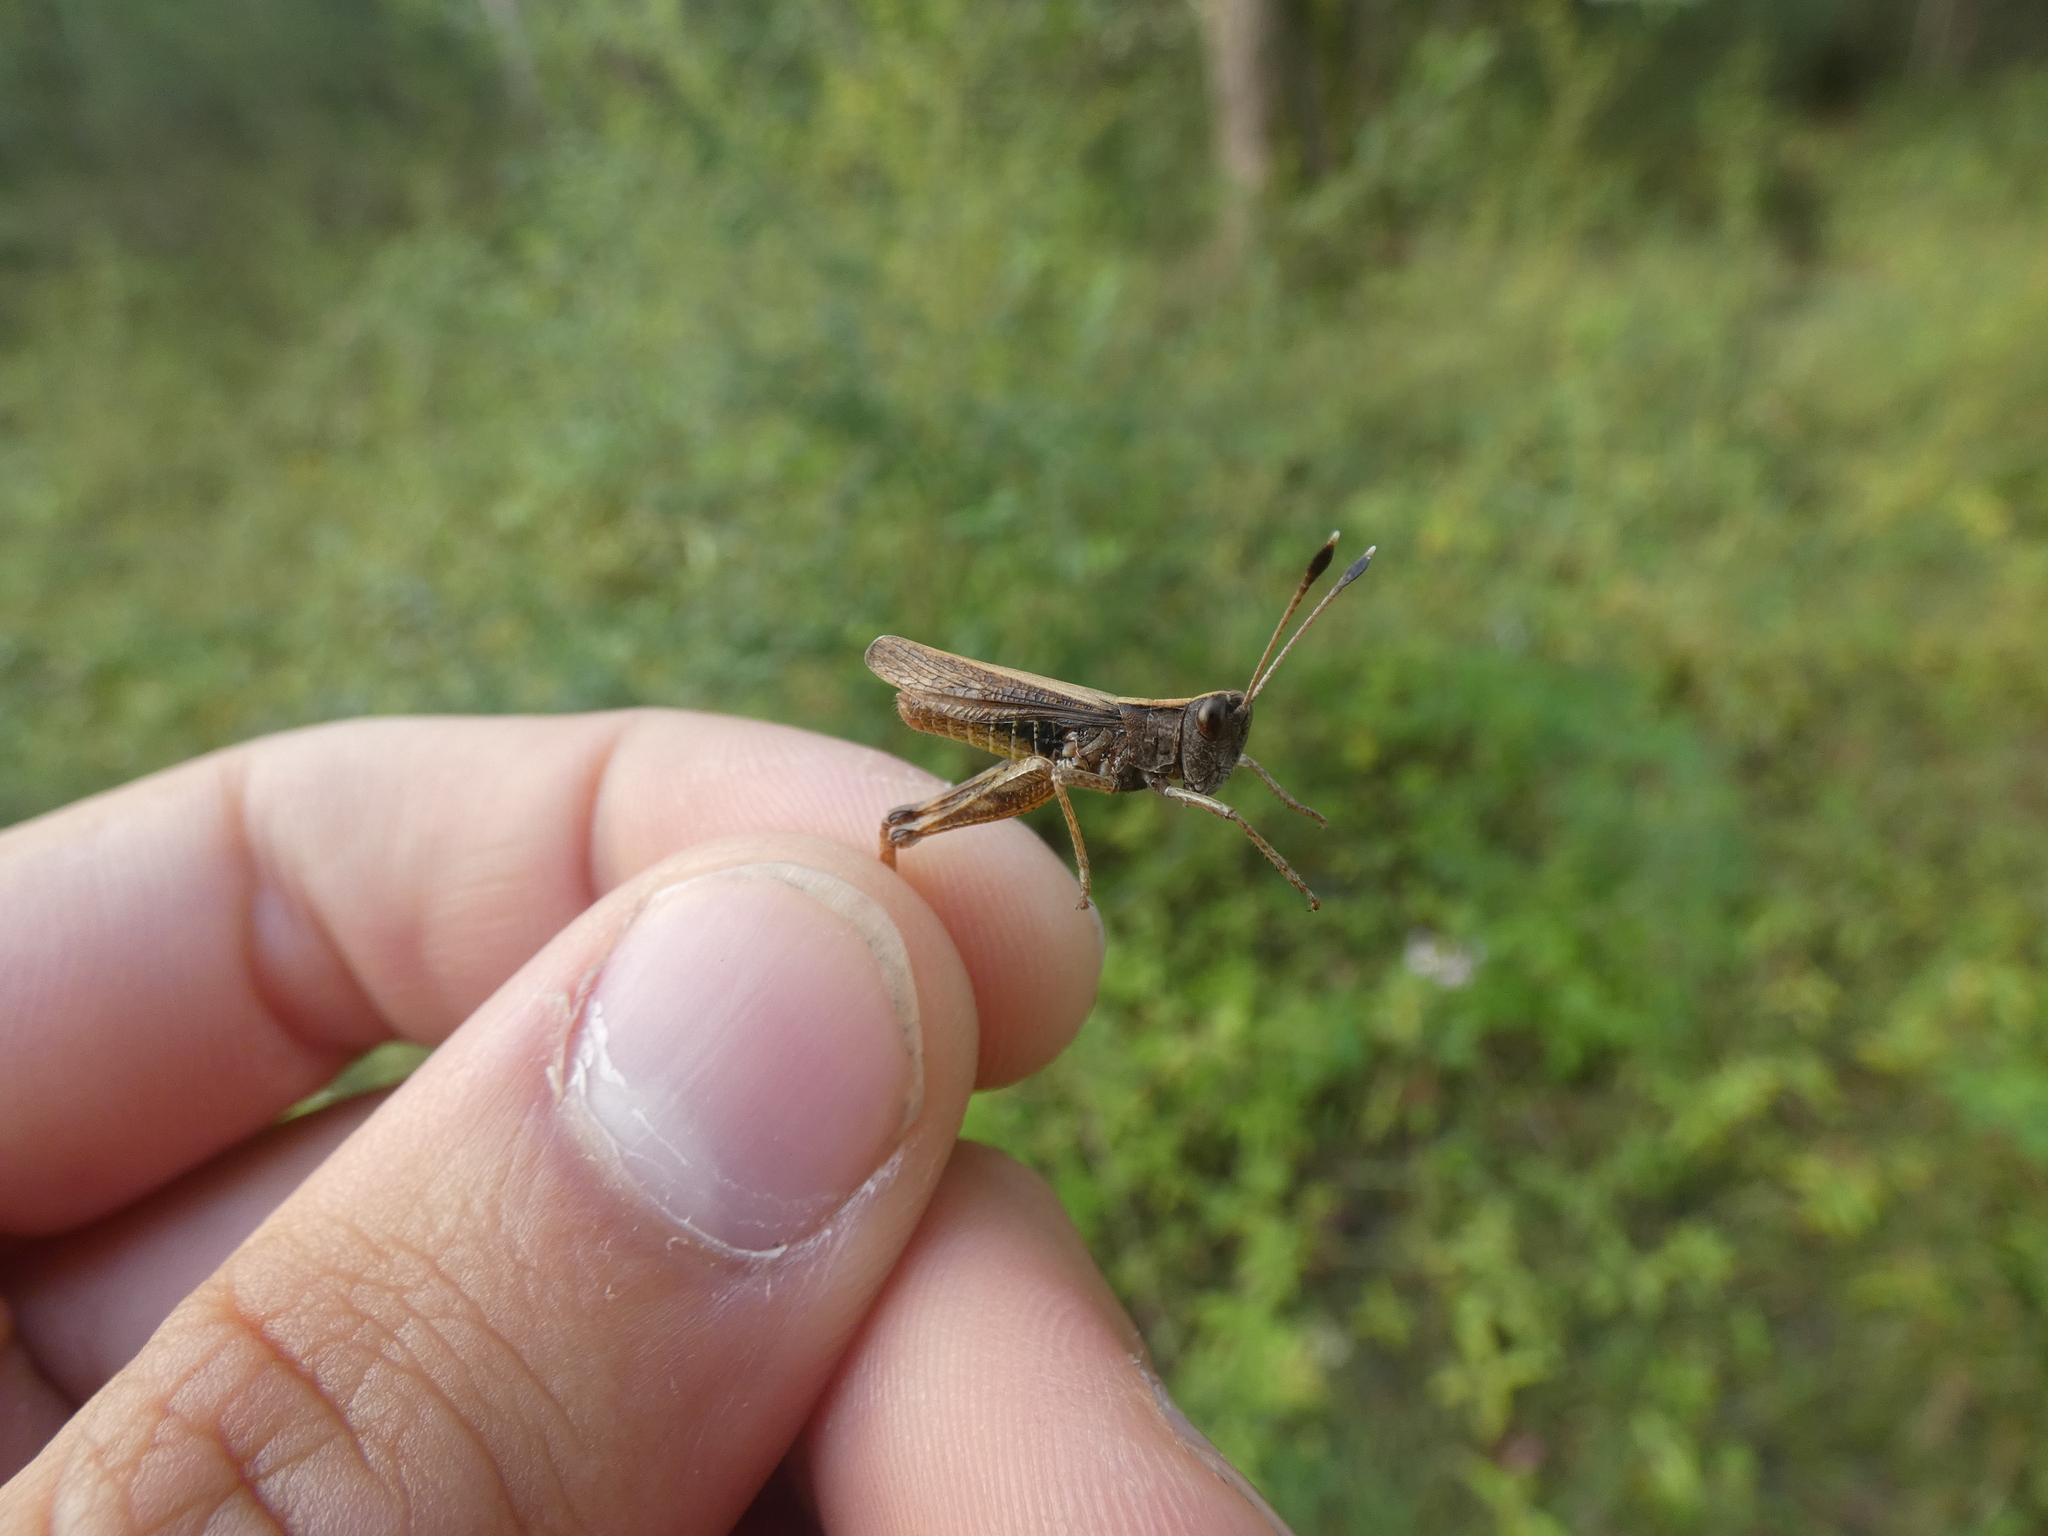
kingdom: Animalia
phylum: Arthropoda
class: Insecta
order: Orthoptera
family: Acrididae
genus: Gomphocerippus
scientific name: Gomphocerippus rufus
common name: Rufous grasshopper
